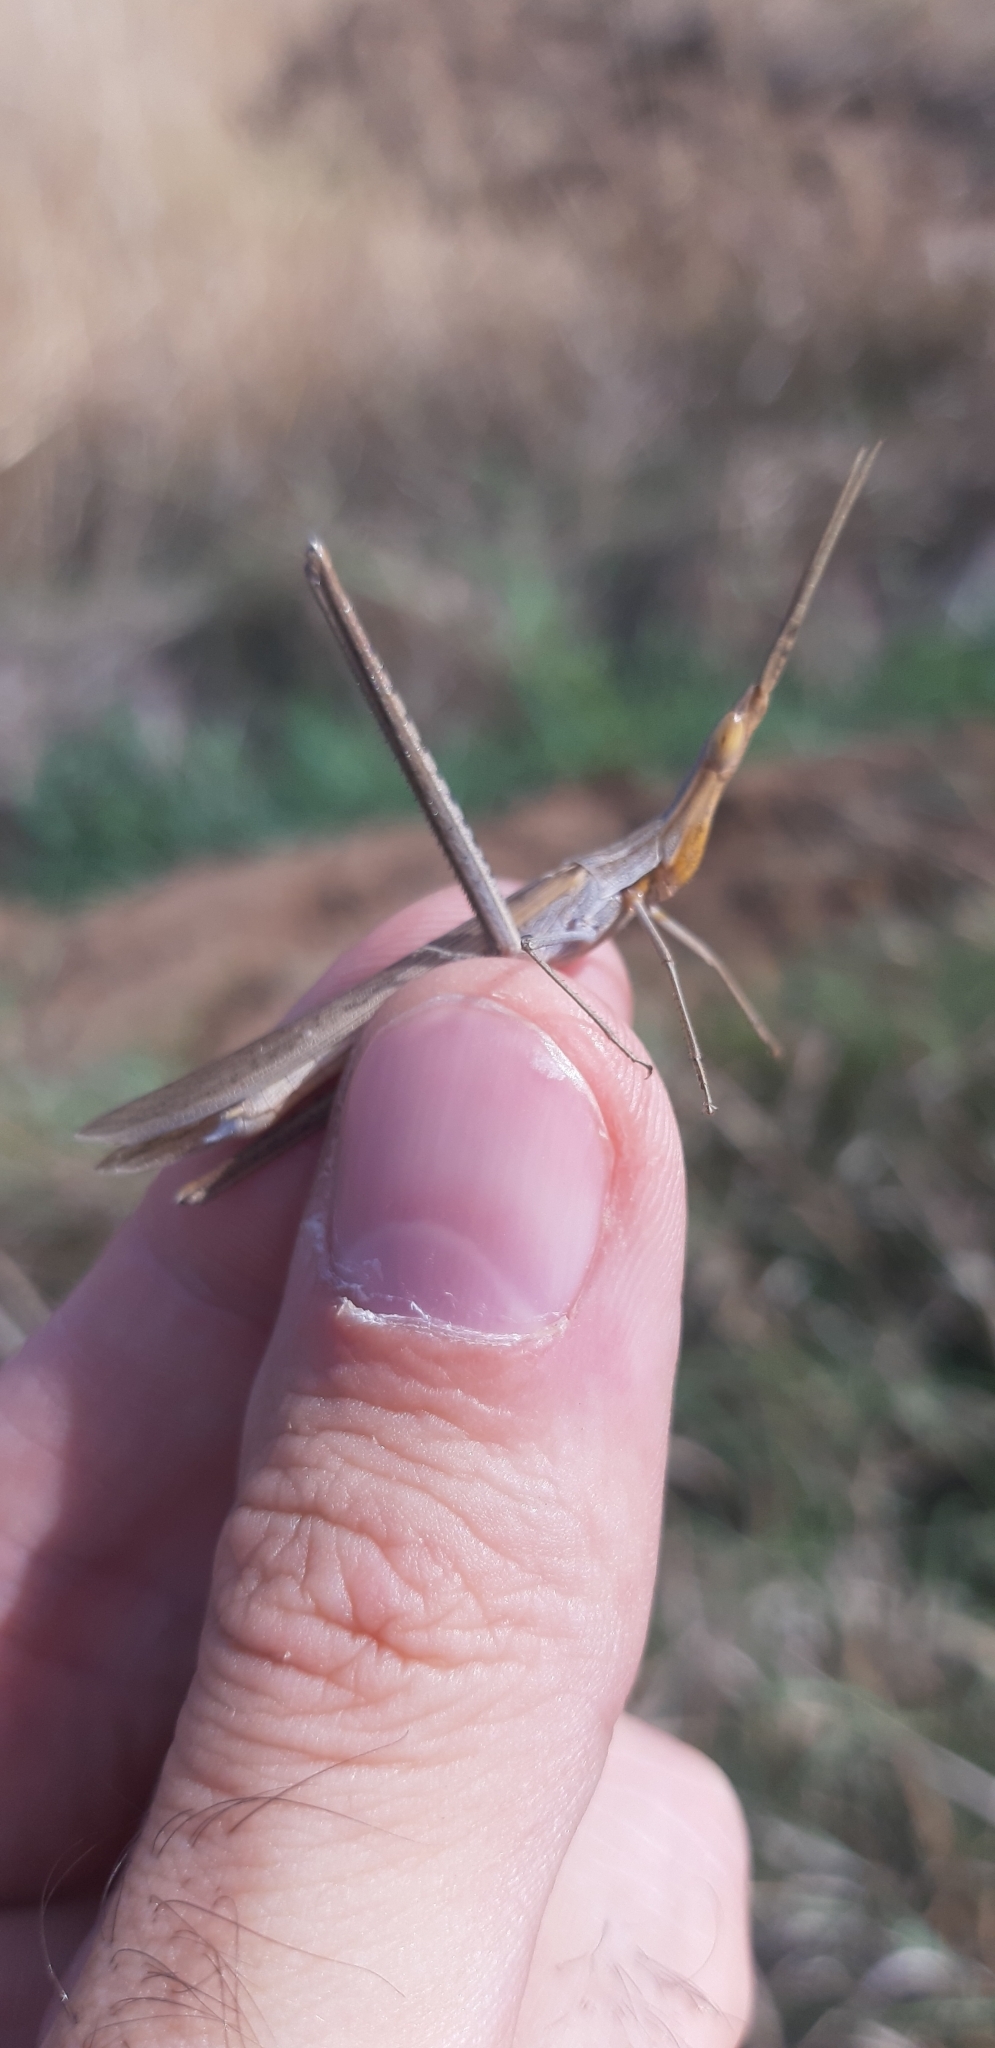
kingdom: Animalia
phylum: Arthropoda
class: Insecta
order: Orthoptera
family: Acrididae
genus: Acrida
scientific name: Acrida ungarica
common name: Common cone-headed grasshopper
